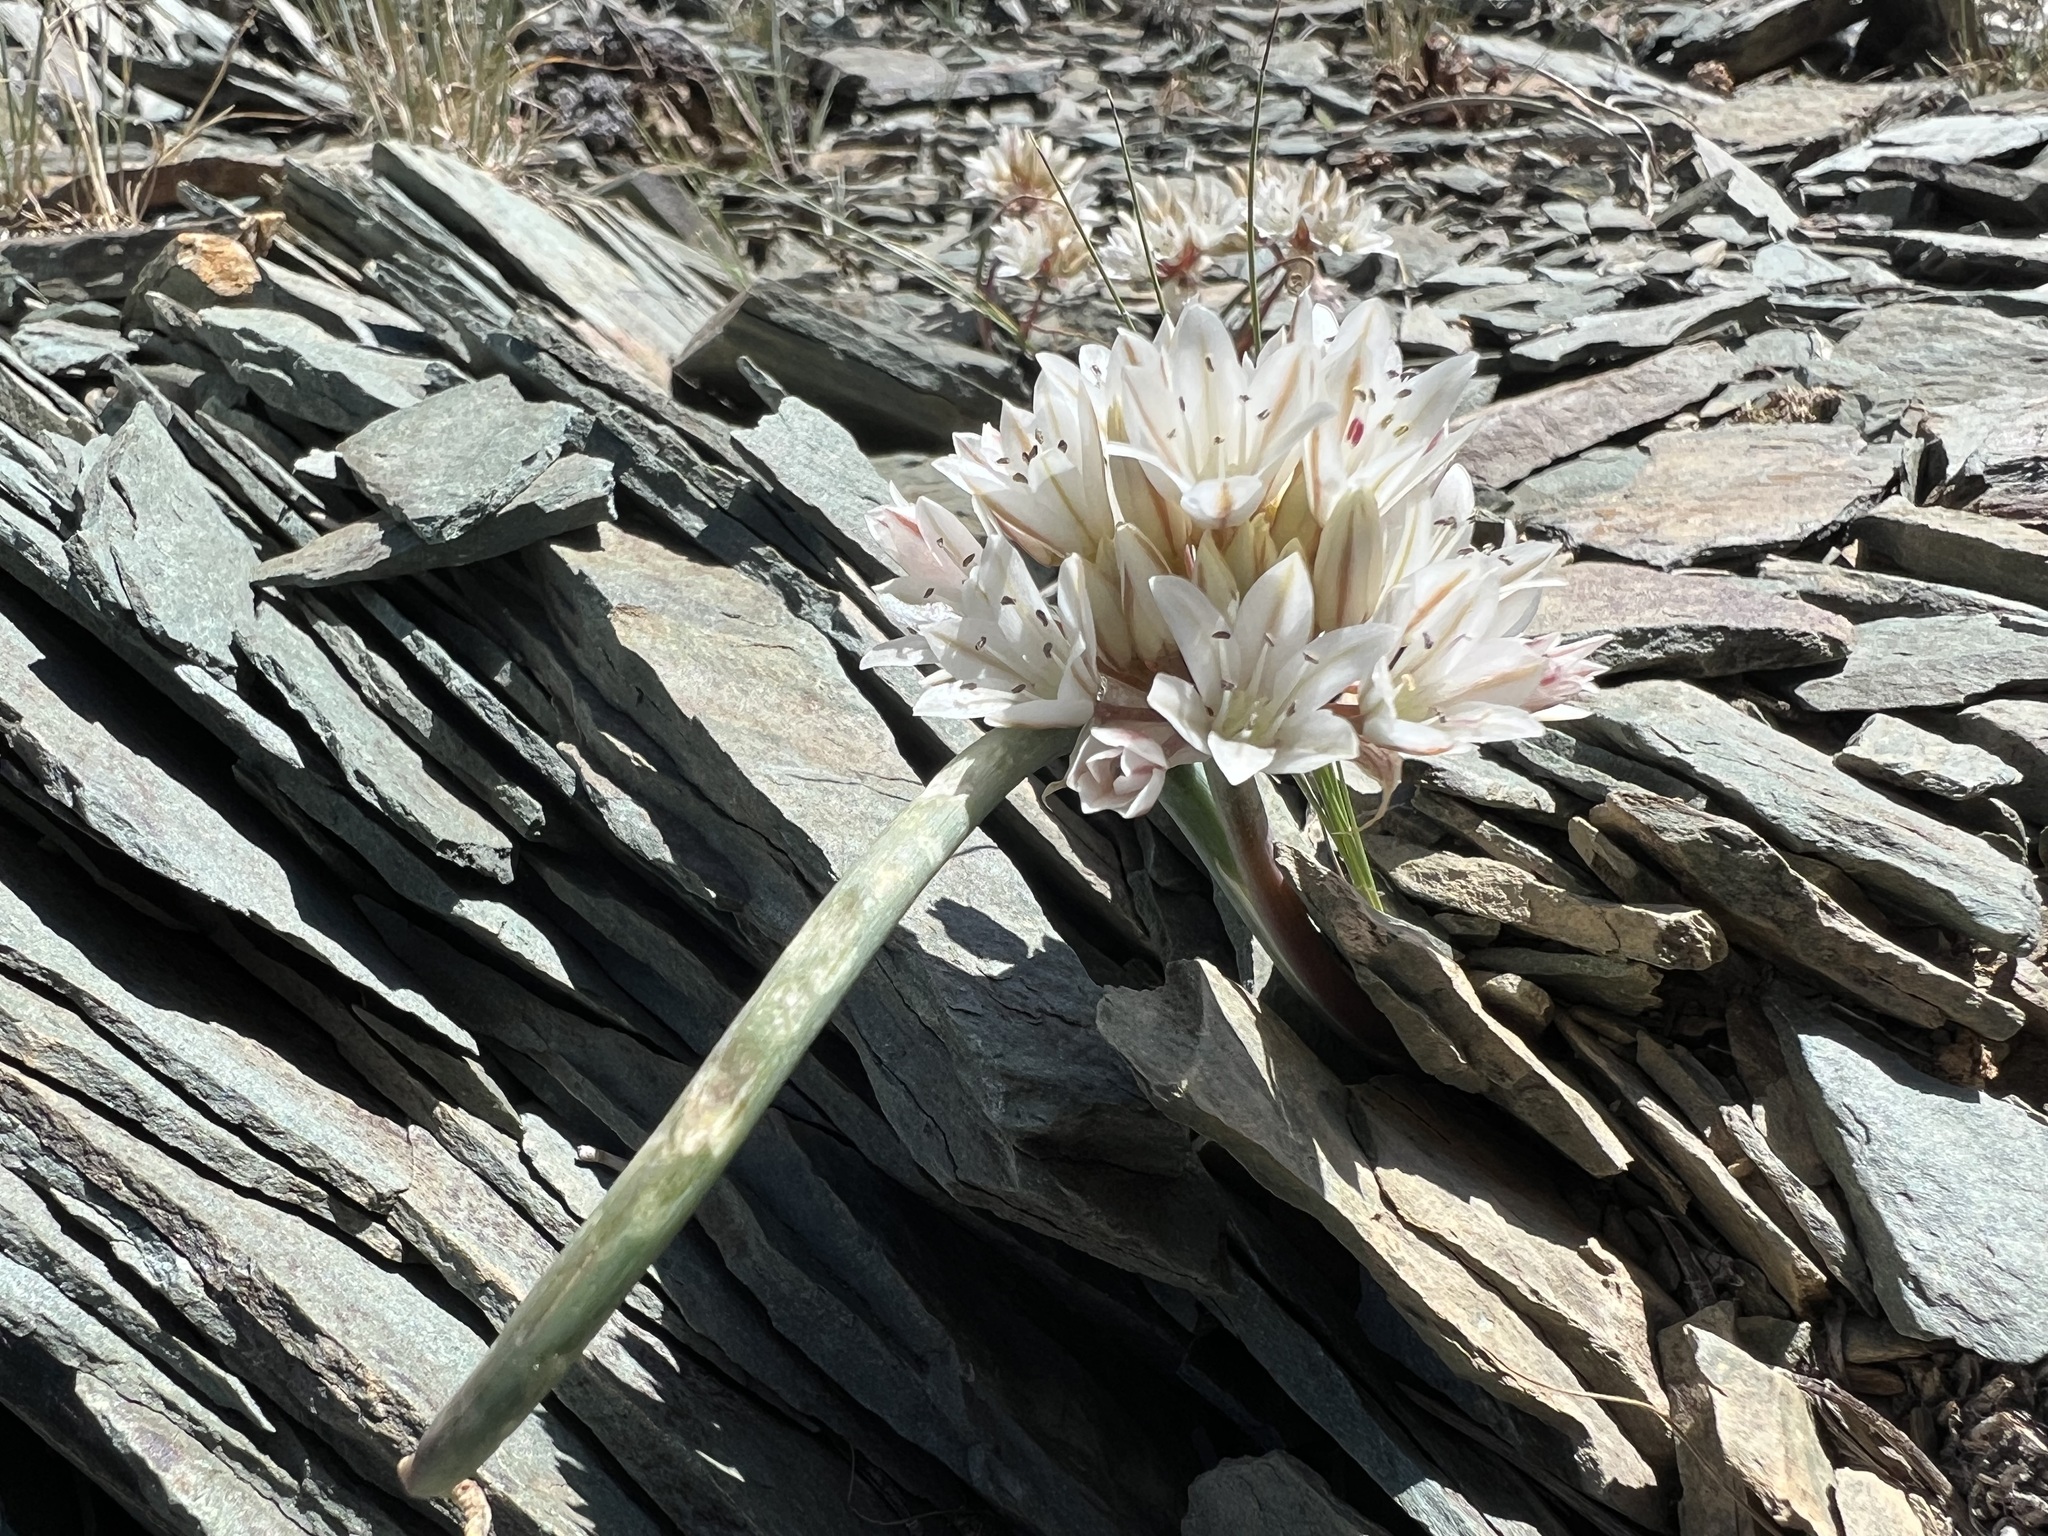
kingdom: Plantae
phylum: Tracheophyta
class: Liliopsida
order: Asparagales
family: Amaryllidaceae
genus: Allium
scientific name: Allium atrorubens
